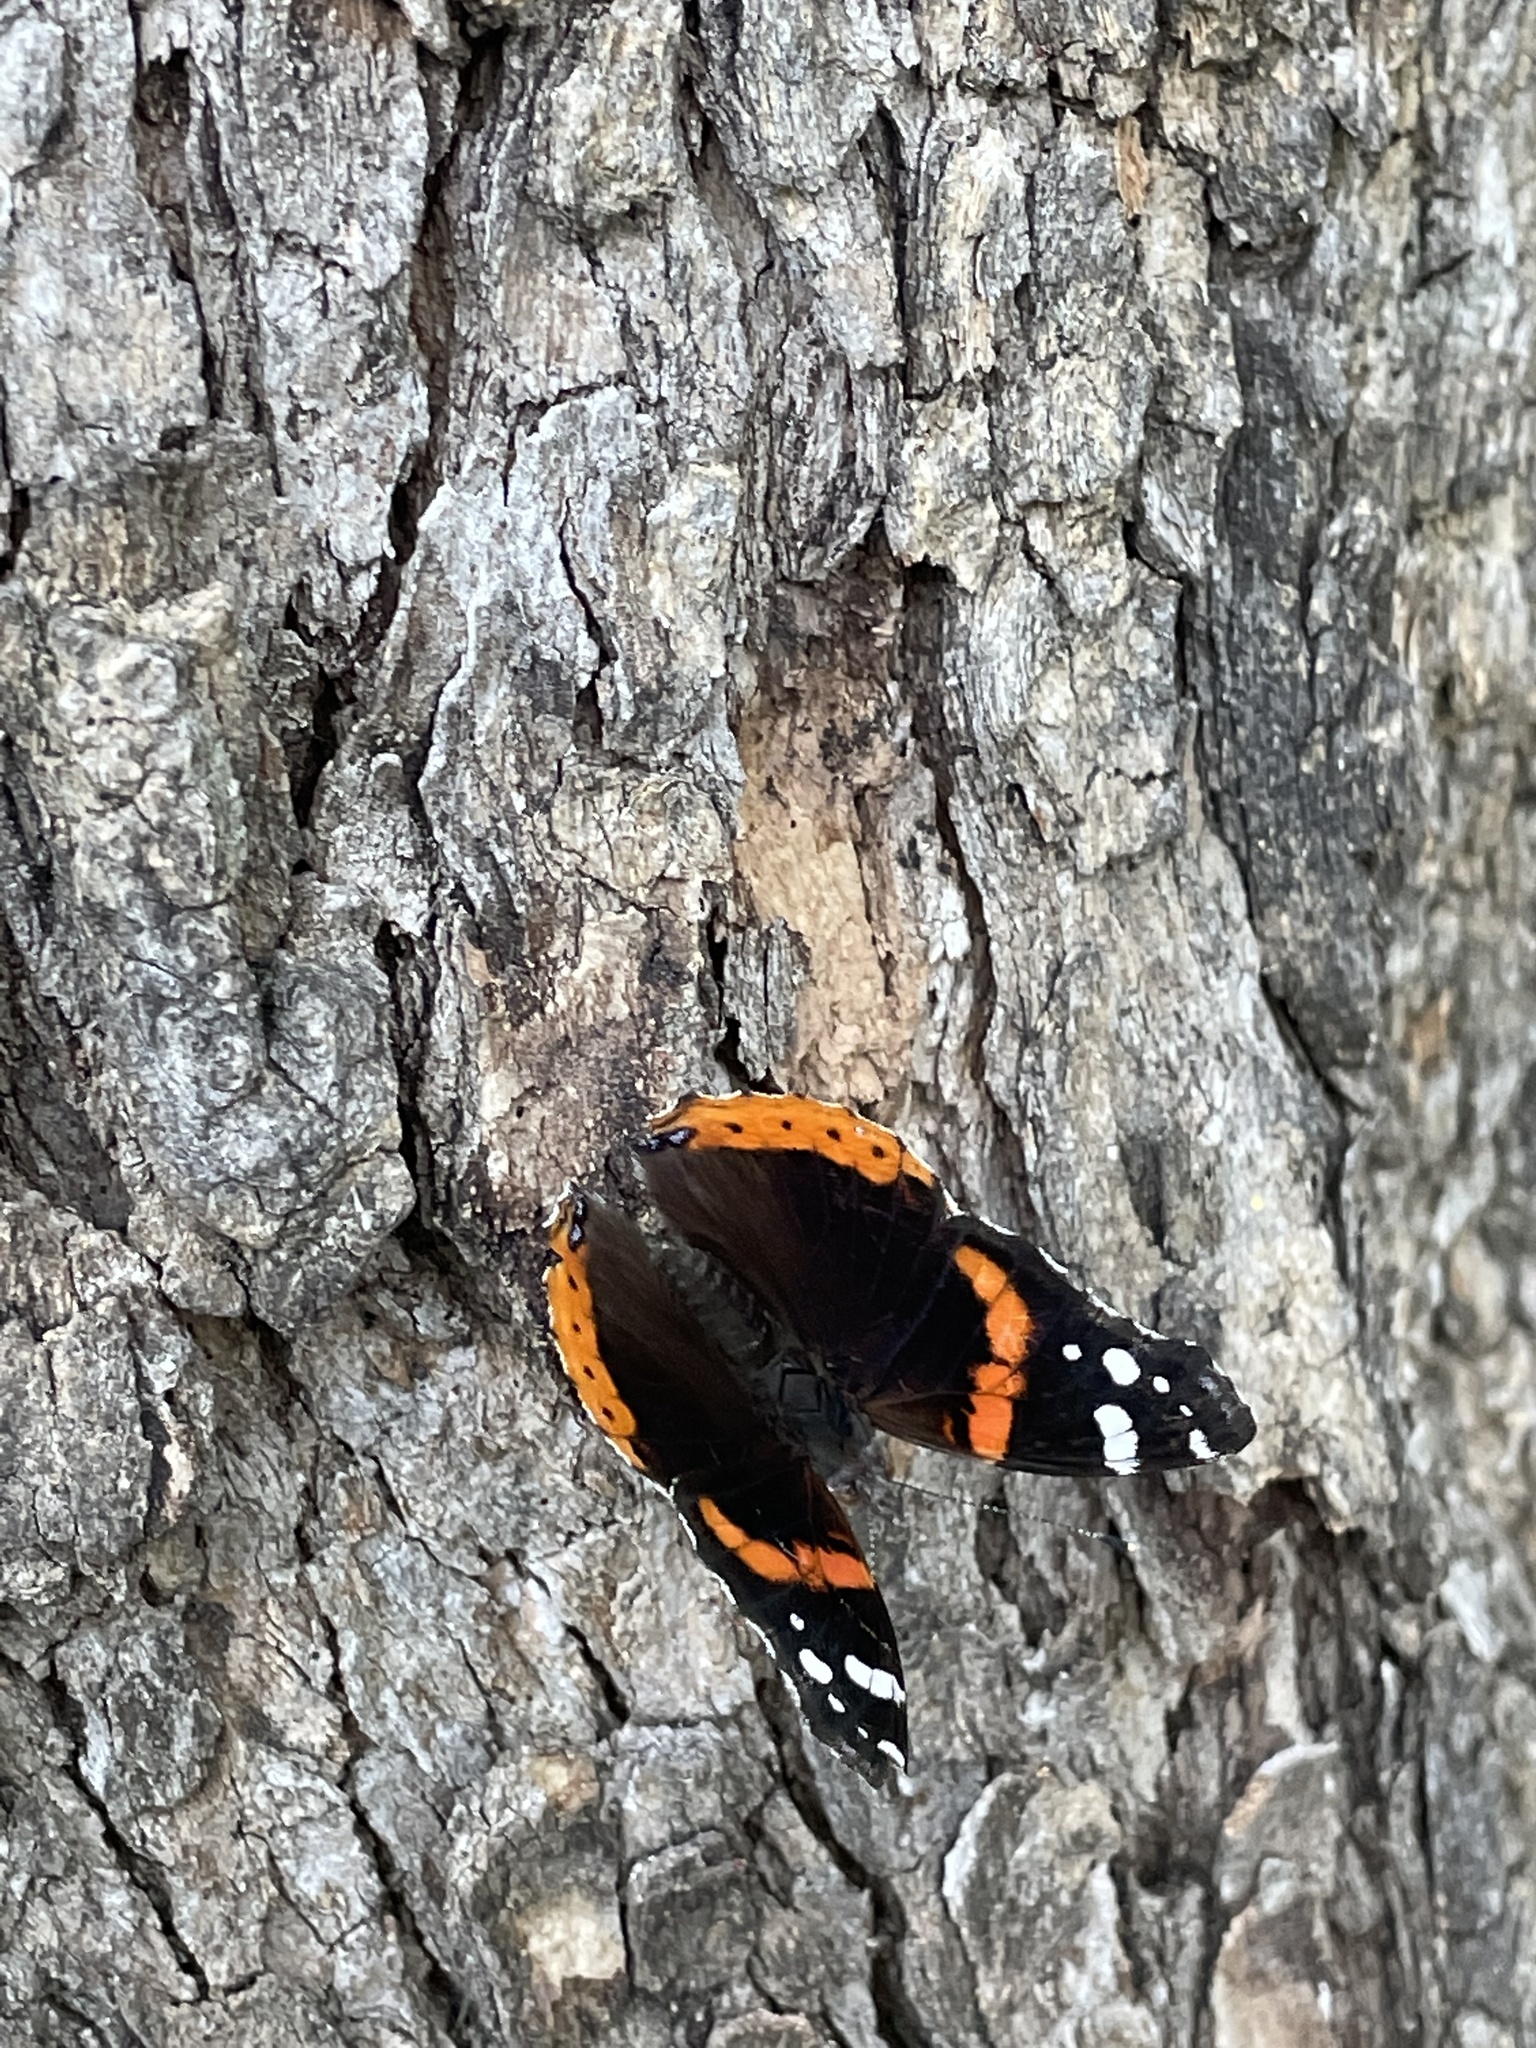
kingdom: Animalia
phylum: Arthropoda
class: Insecta
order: Lepidoptera
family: Nymphalidae
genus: Vanessa
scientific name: Vanessa atalanta
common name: Red admiral
